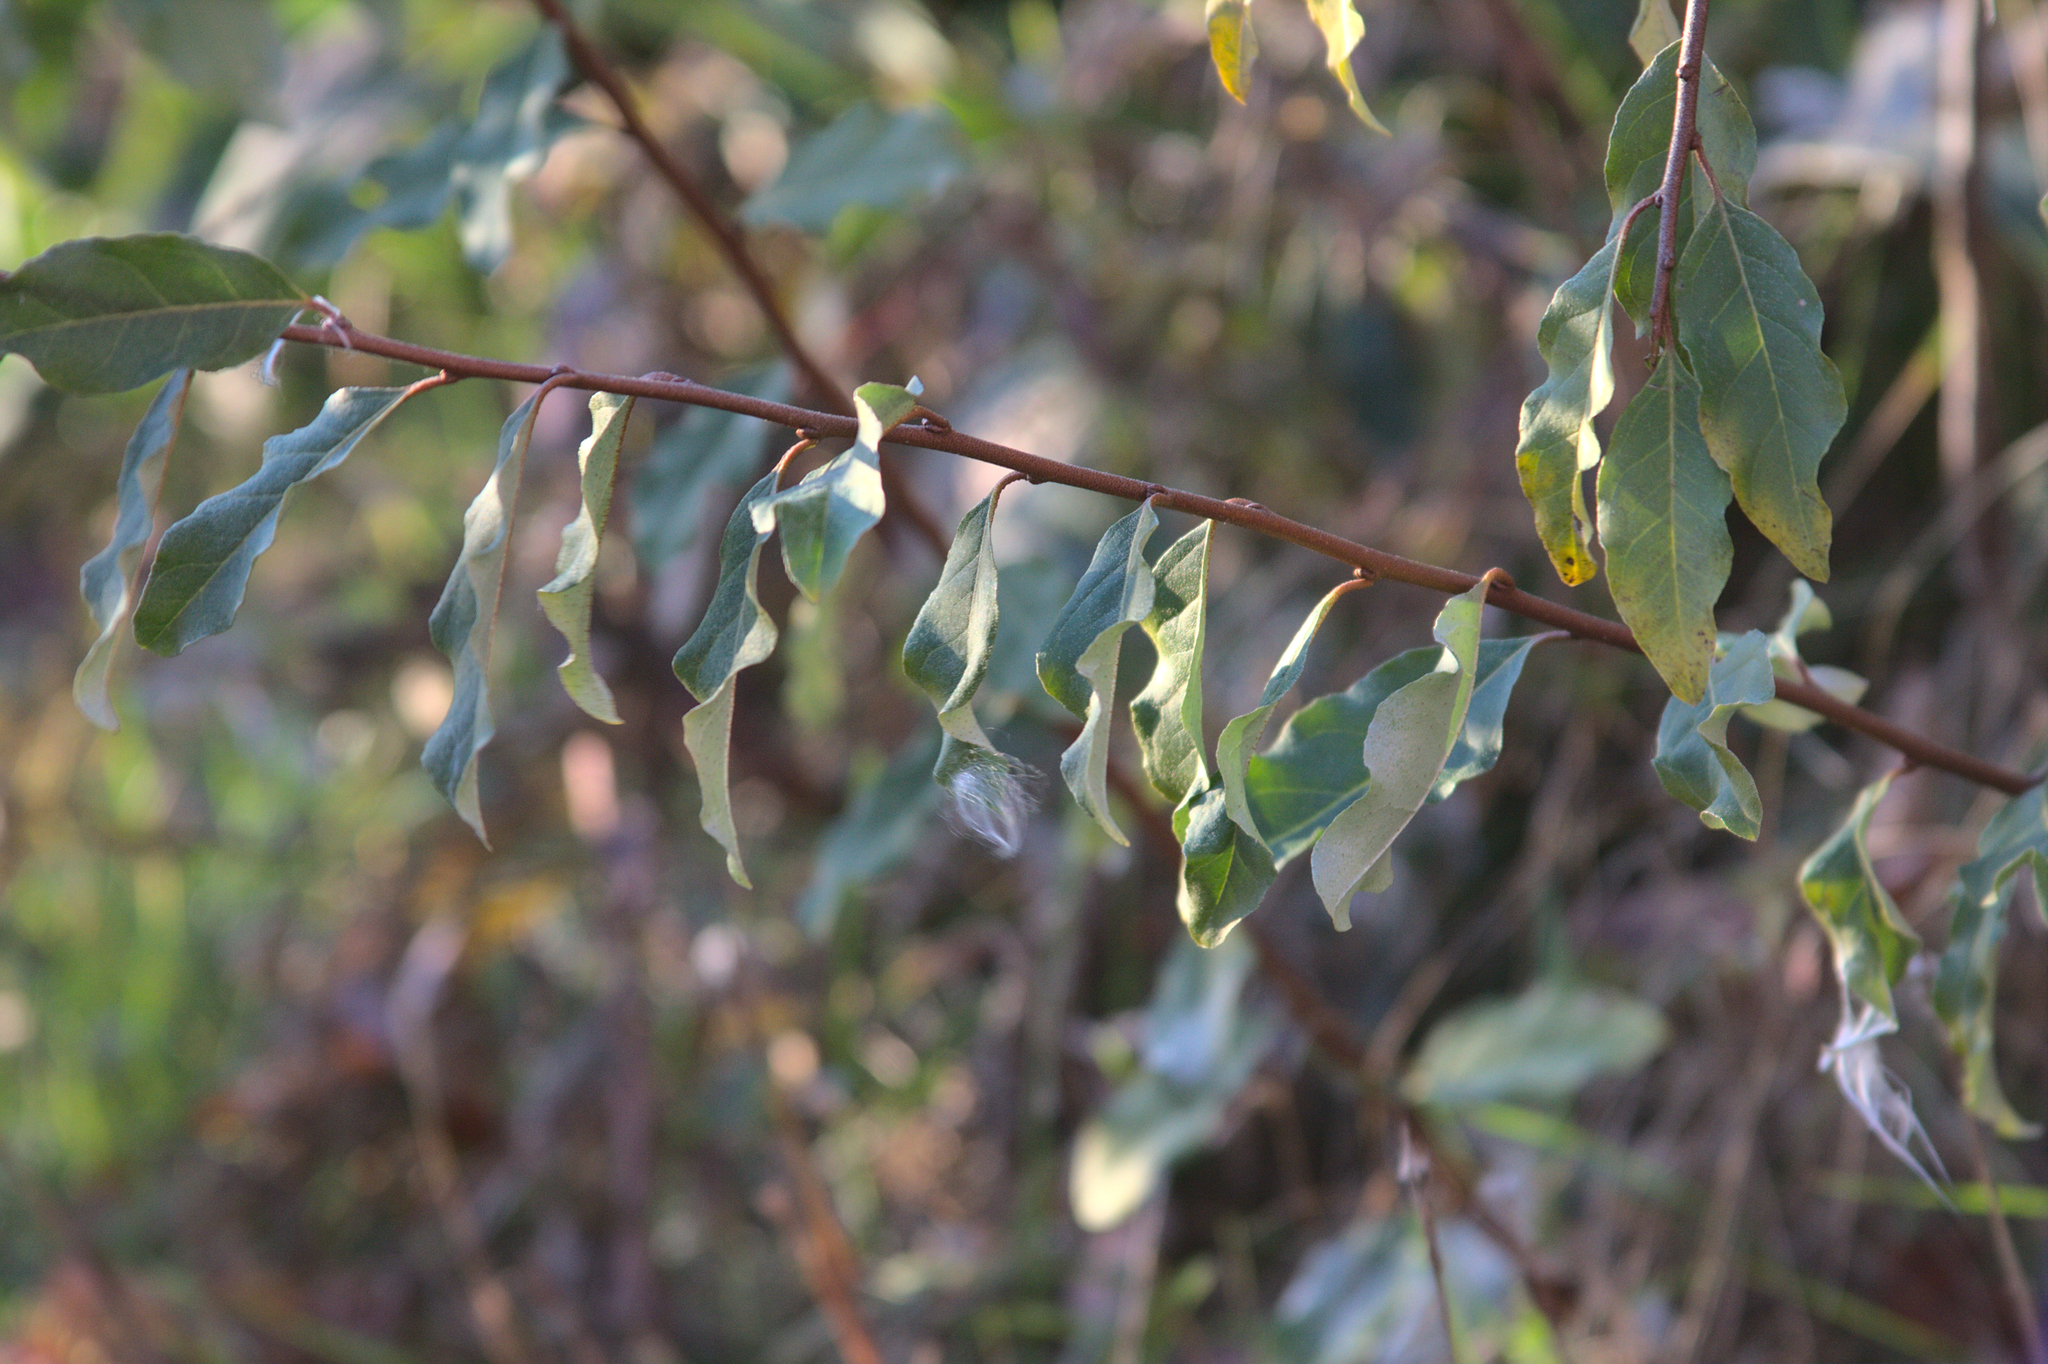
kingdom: Plantae
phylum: Tracheophyta
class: Magnoliopsida
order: Rosales
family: Elaeagnaceae
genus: Elaeagnus
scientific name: Elaeagnus umbellata
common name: Autumn olive
